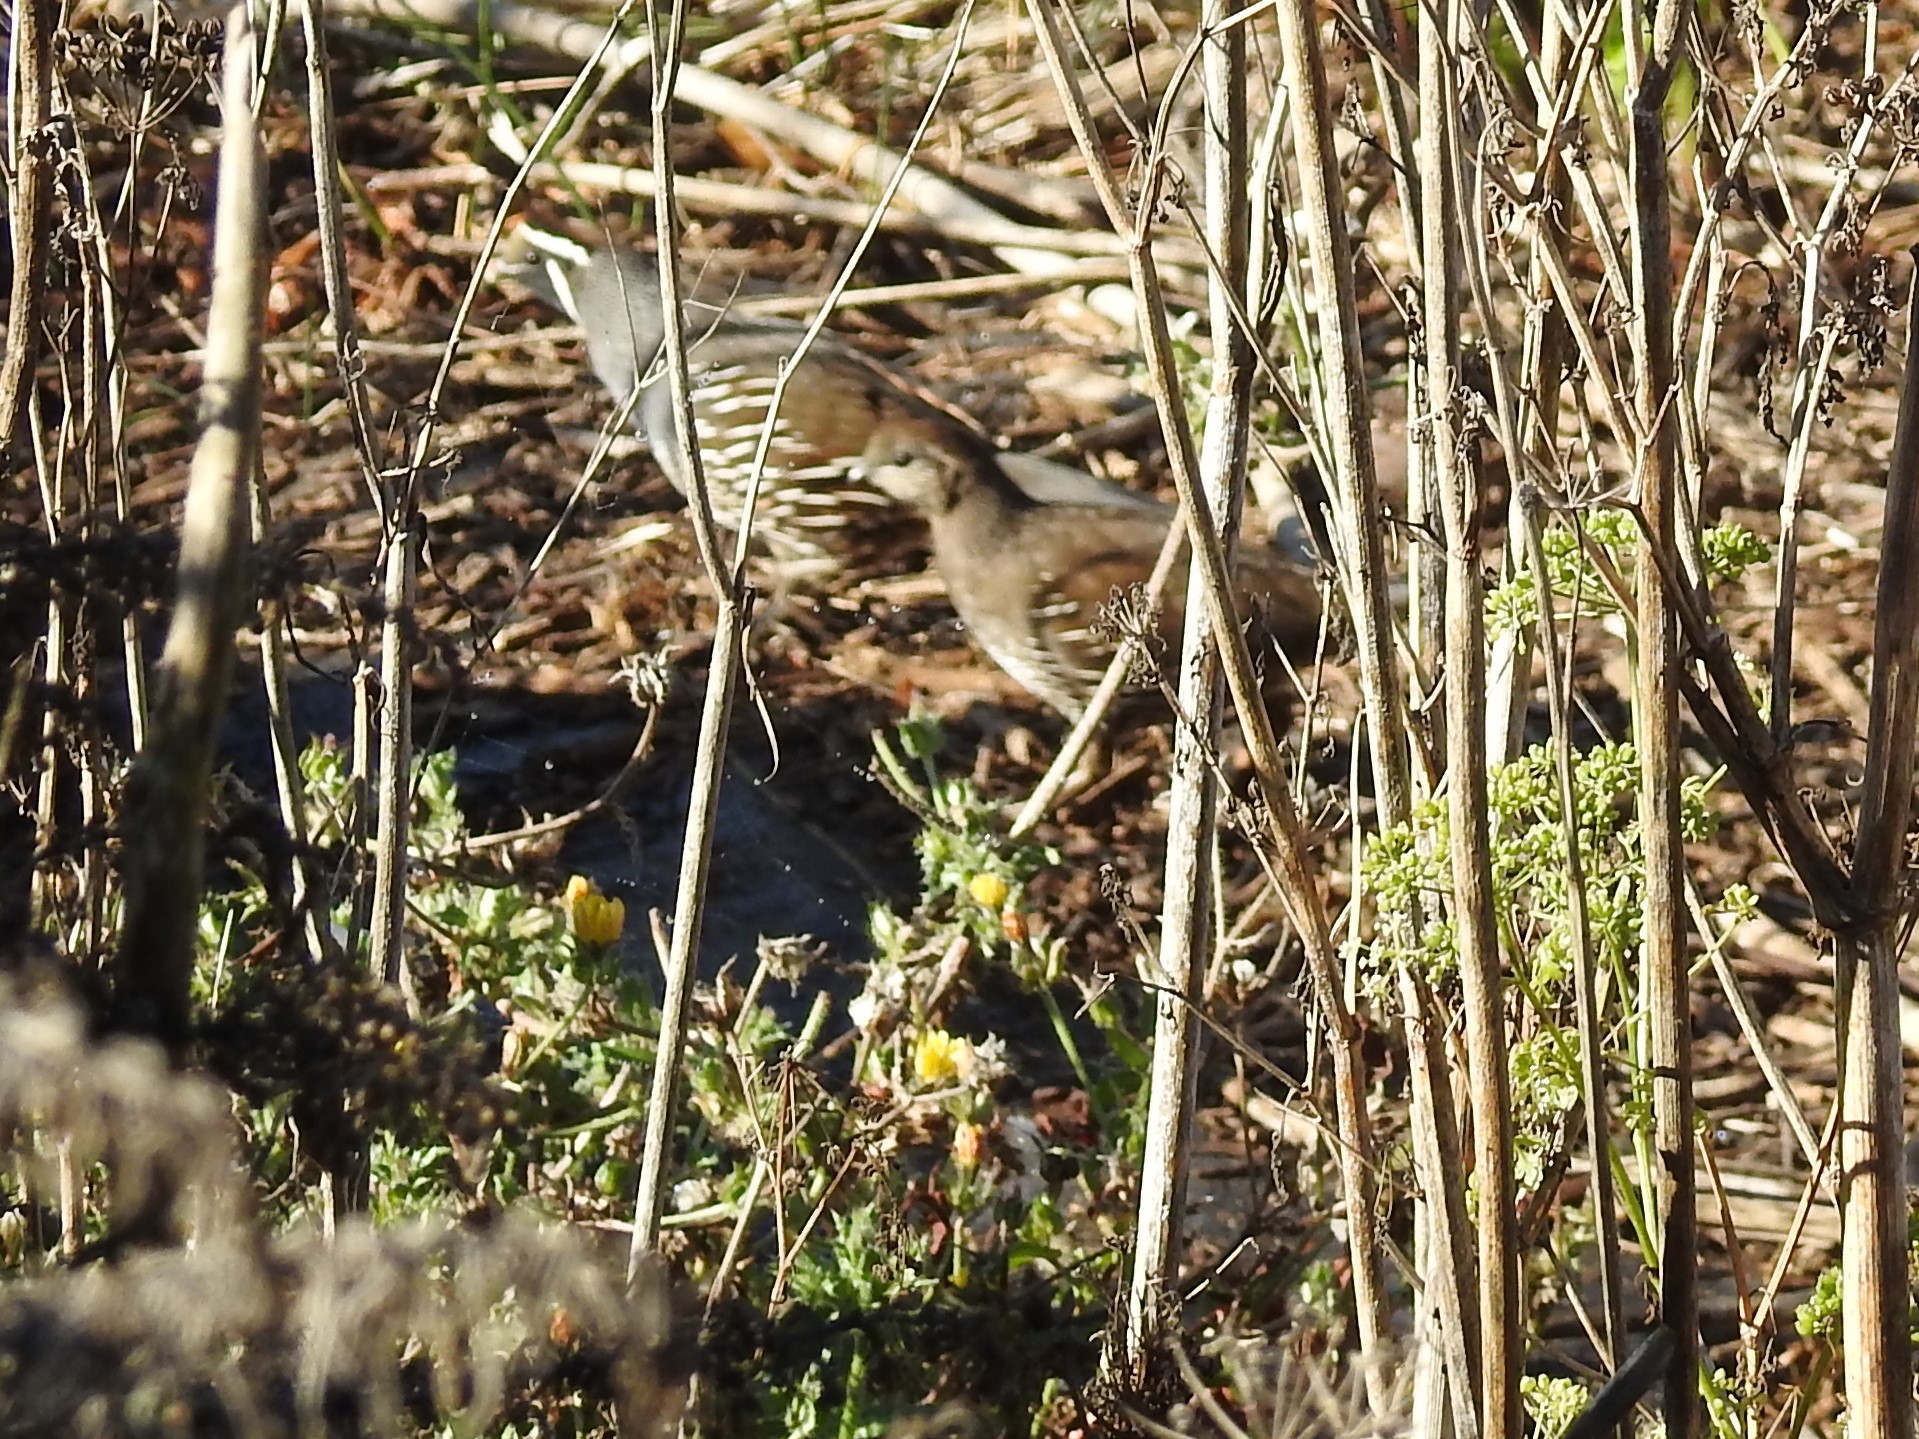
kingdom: Animalia
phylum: Chordata
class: Aves
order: Galliformes
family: Odontophoridae
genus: Callipepla
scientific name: Callipepla californica
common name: California quail
